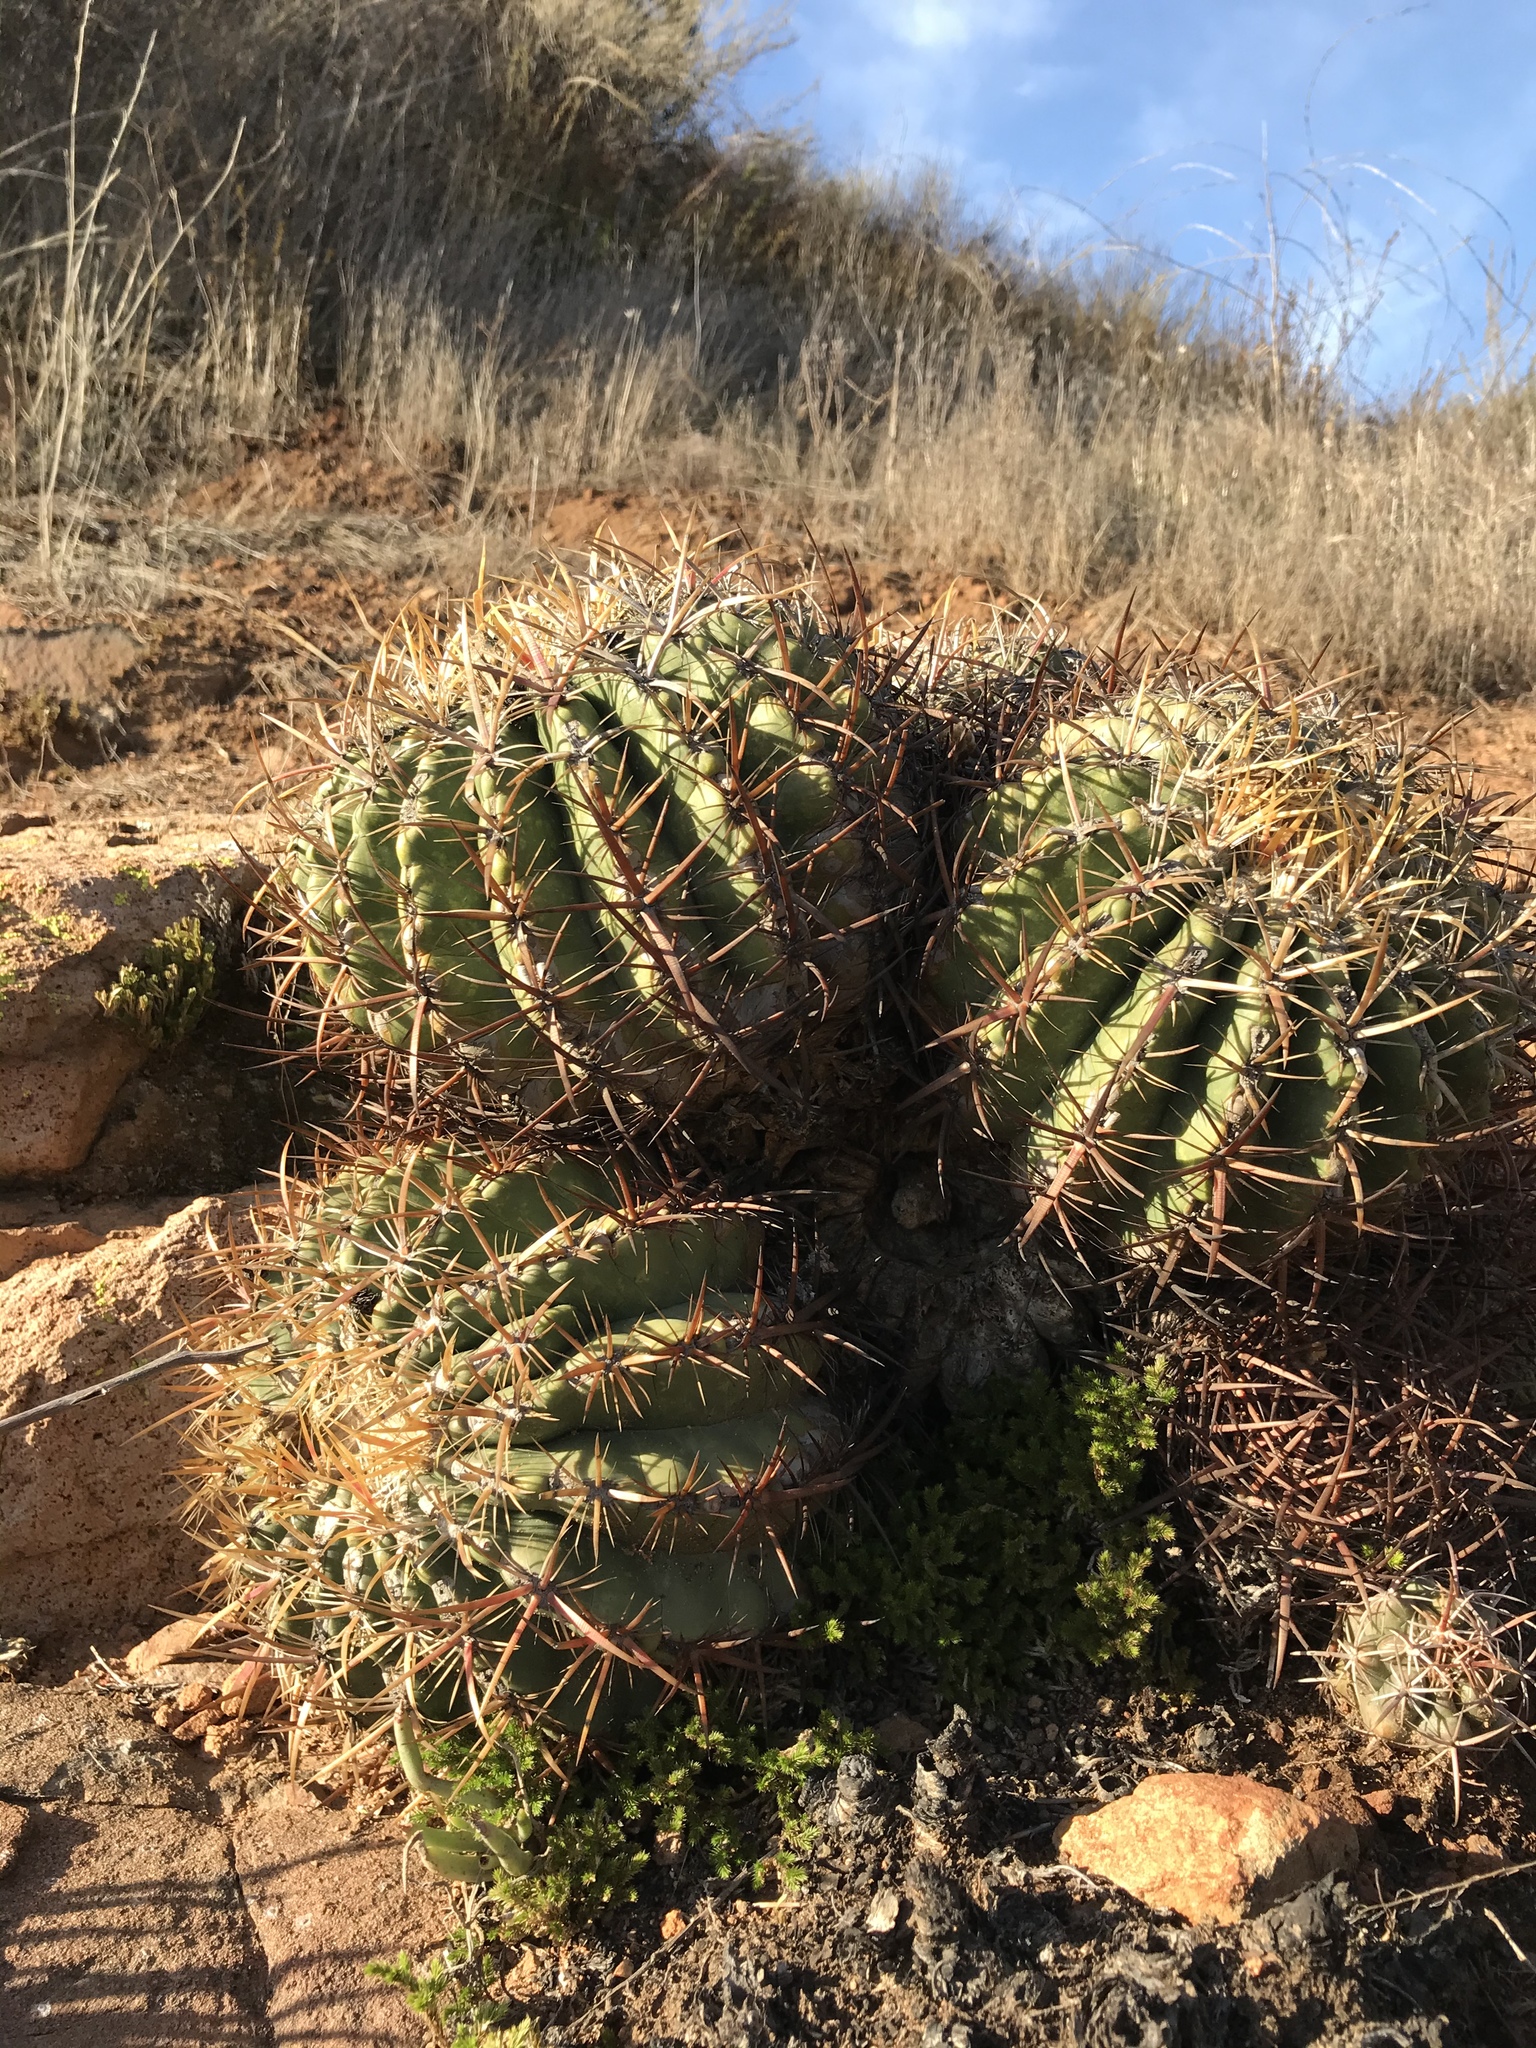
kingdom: Plantae
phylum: Tracheophyta
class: Magnoliopsida
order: Caryophyllales
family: Cactaceae
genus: Ferocactus
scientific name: Ferocactus viridescens
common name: San diego barrel cactus
